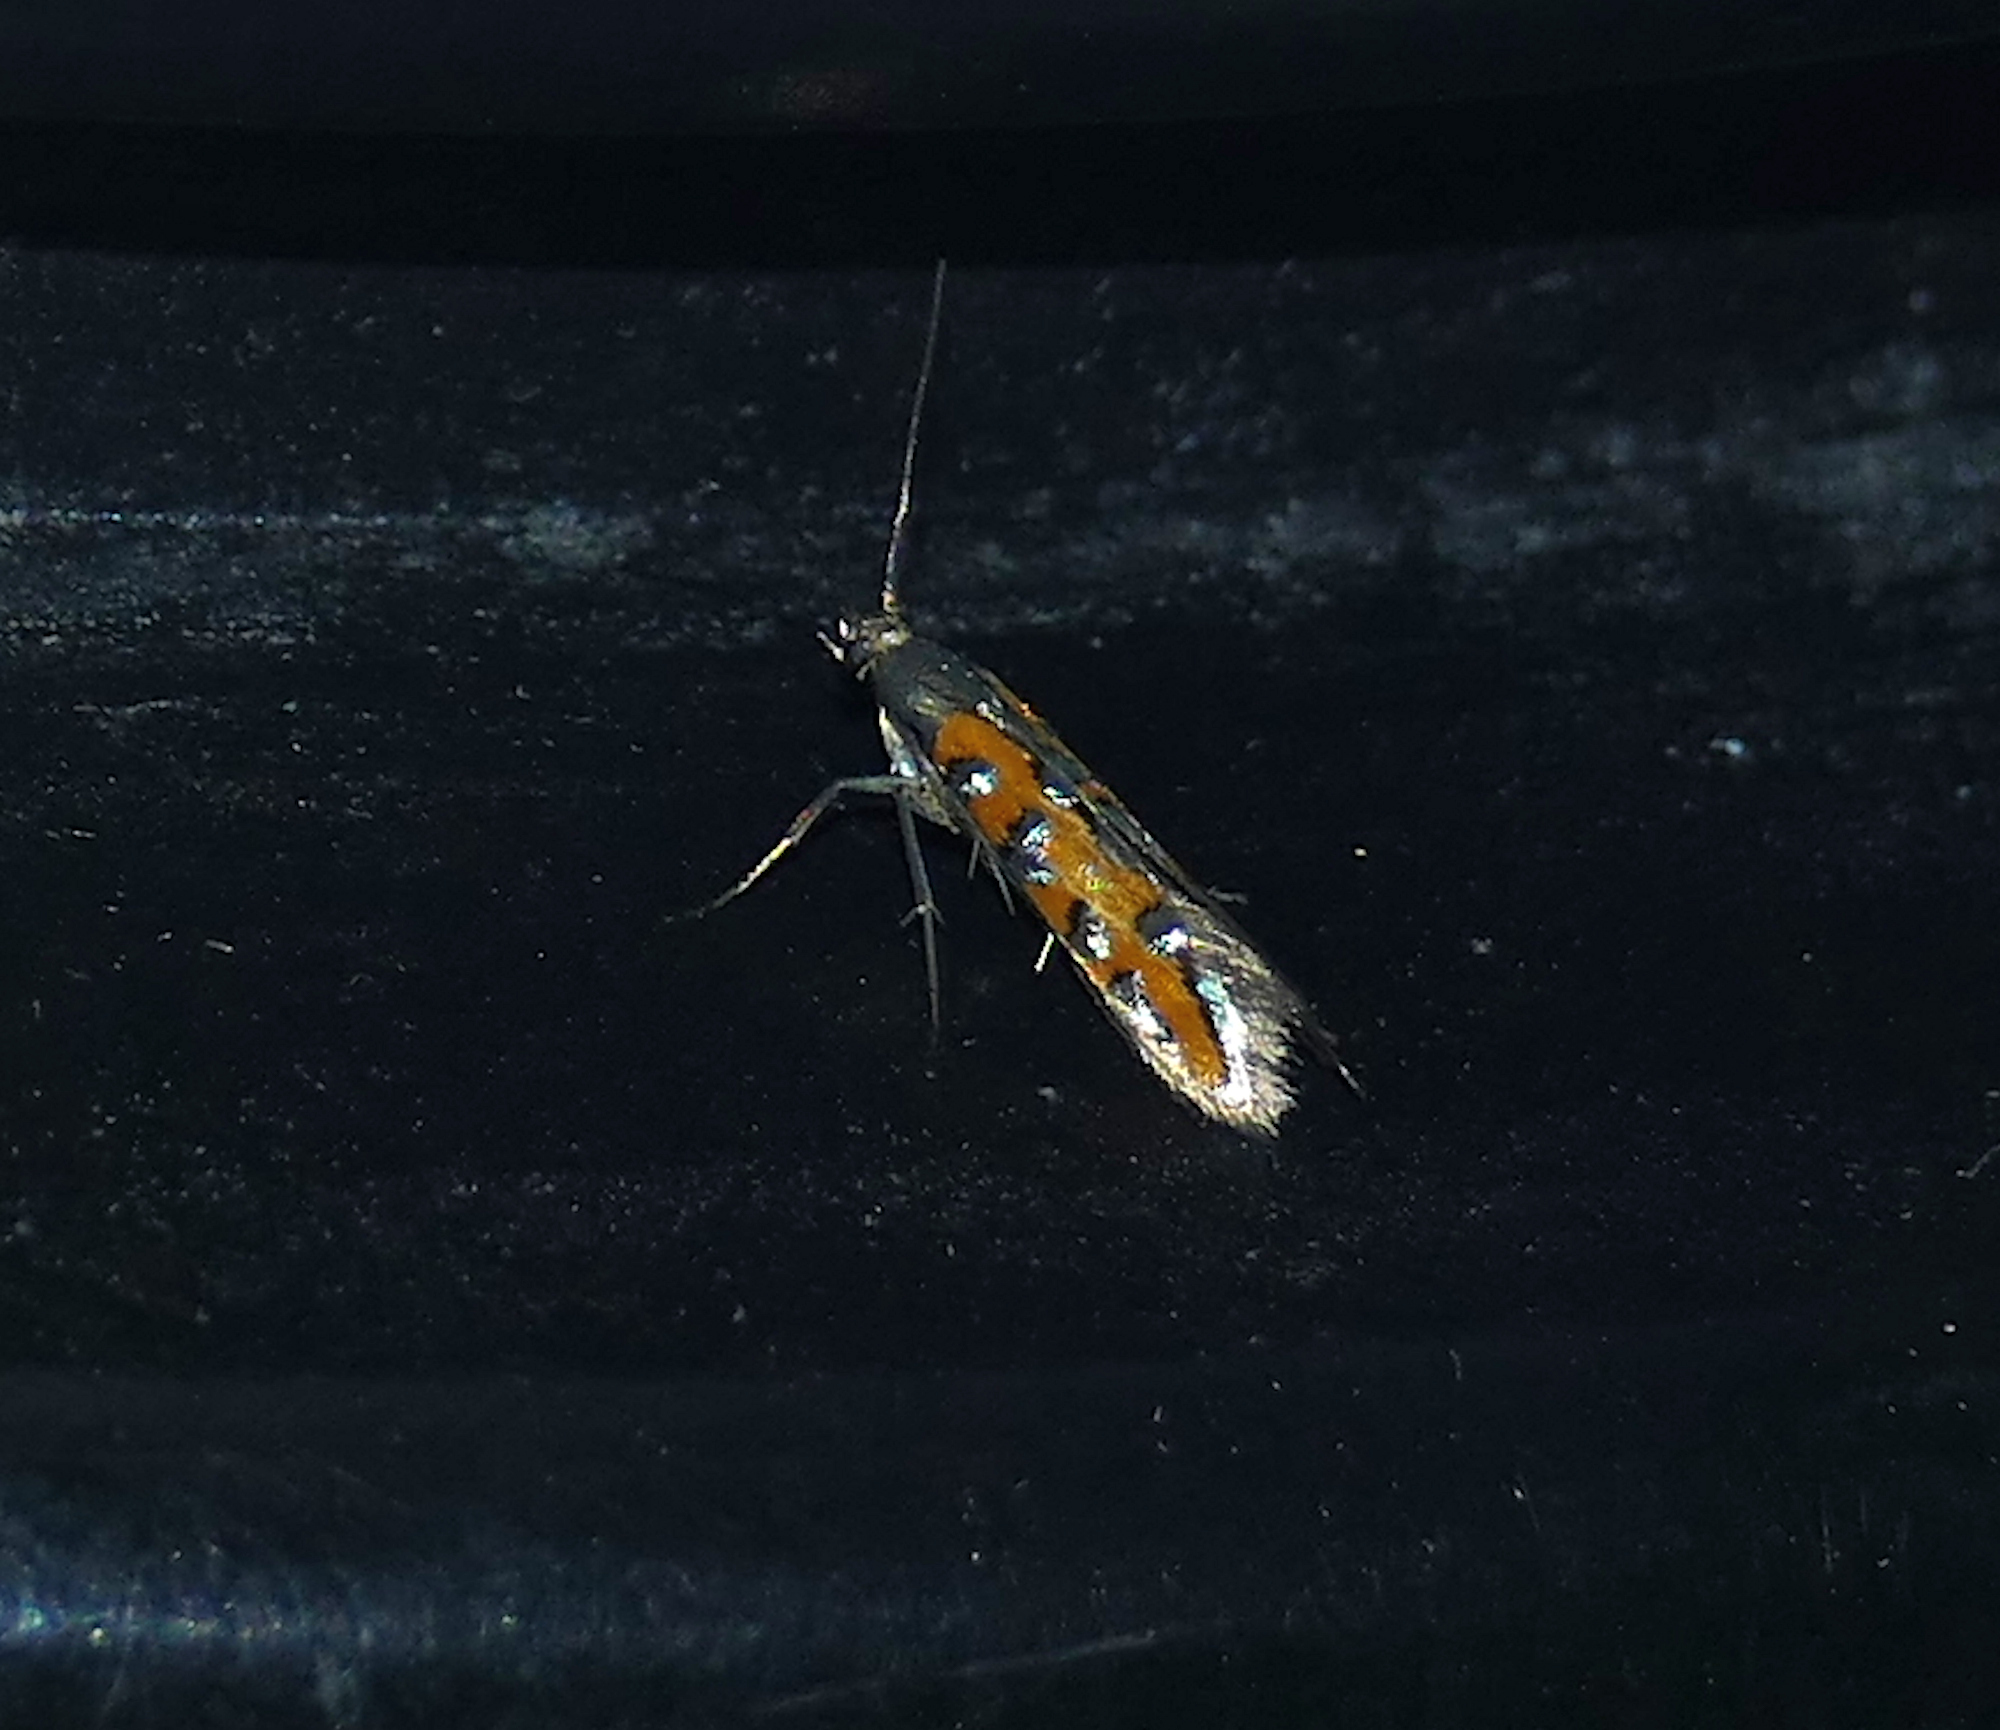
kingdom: Animalia
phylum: Arthropoda
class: Insecta
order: Lepidoptera
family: Heliodinidae
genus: Lamprolophus
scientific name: Lamprolophus
